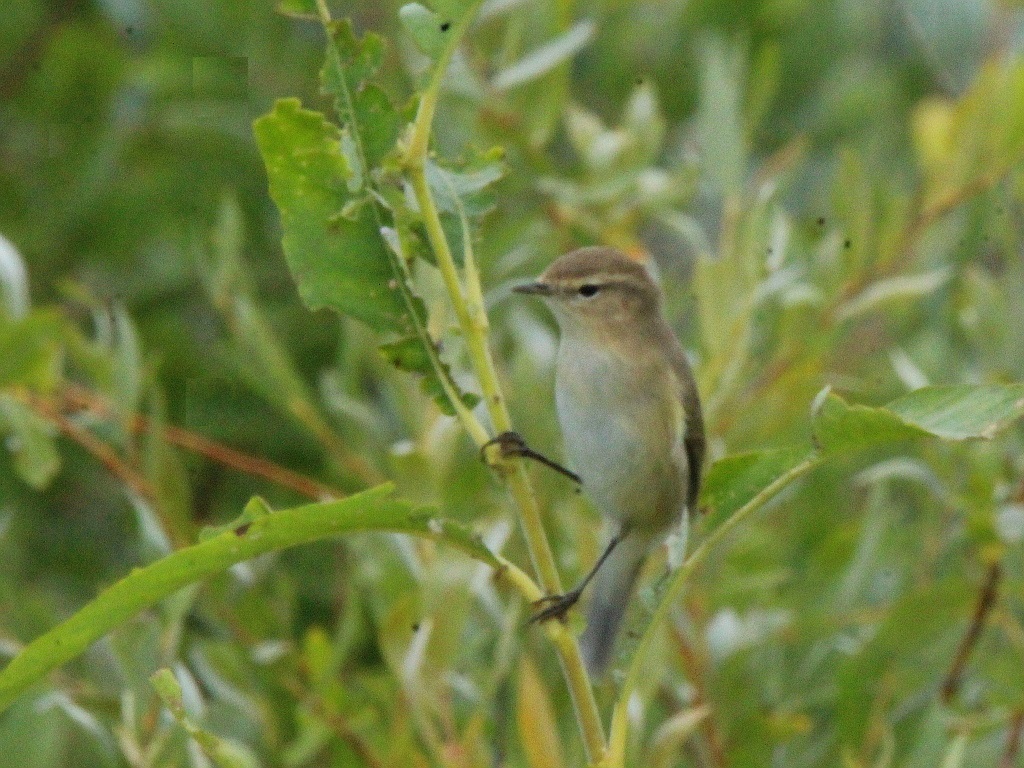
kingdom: Animalia
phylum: Chordata
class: Aves
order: Passeriformes
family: Phylloscopidae
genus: Phylloscopus
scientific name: Phylloscopus collybita
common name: Common chiffchaff
